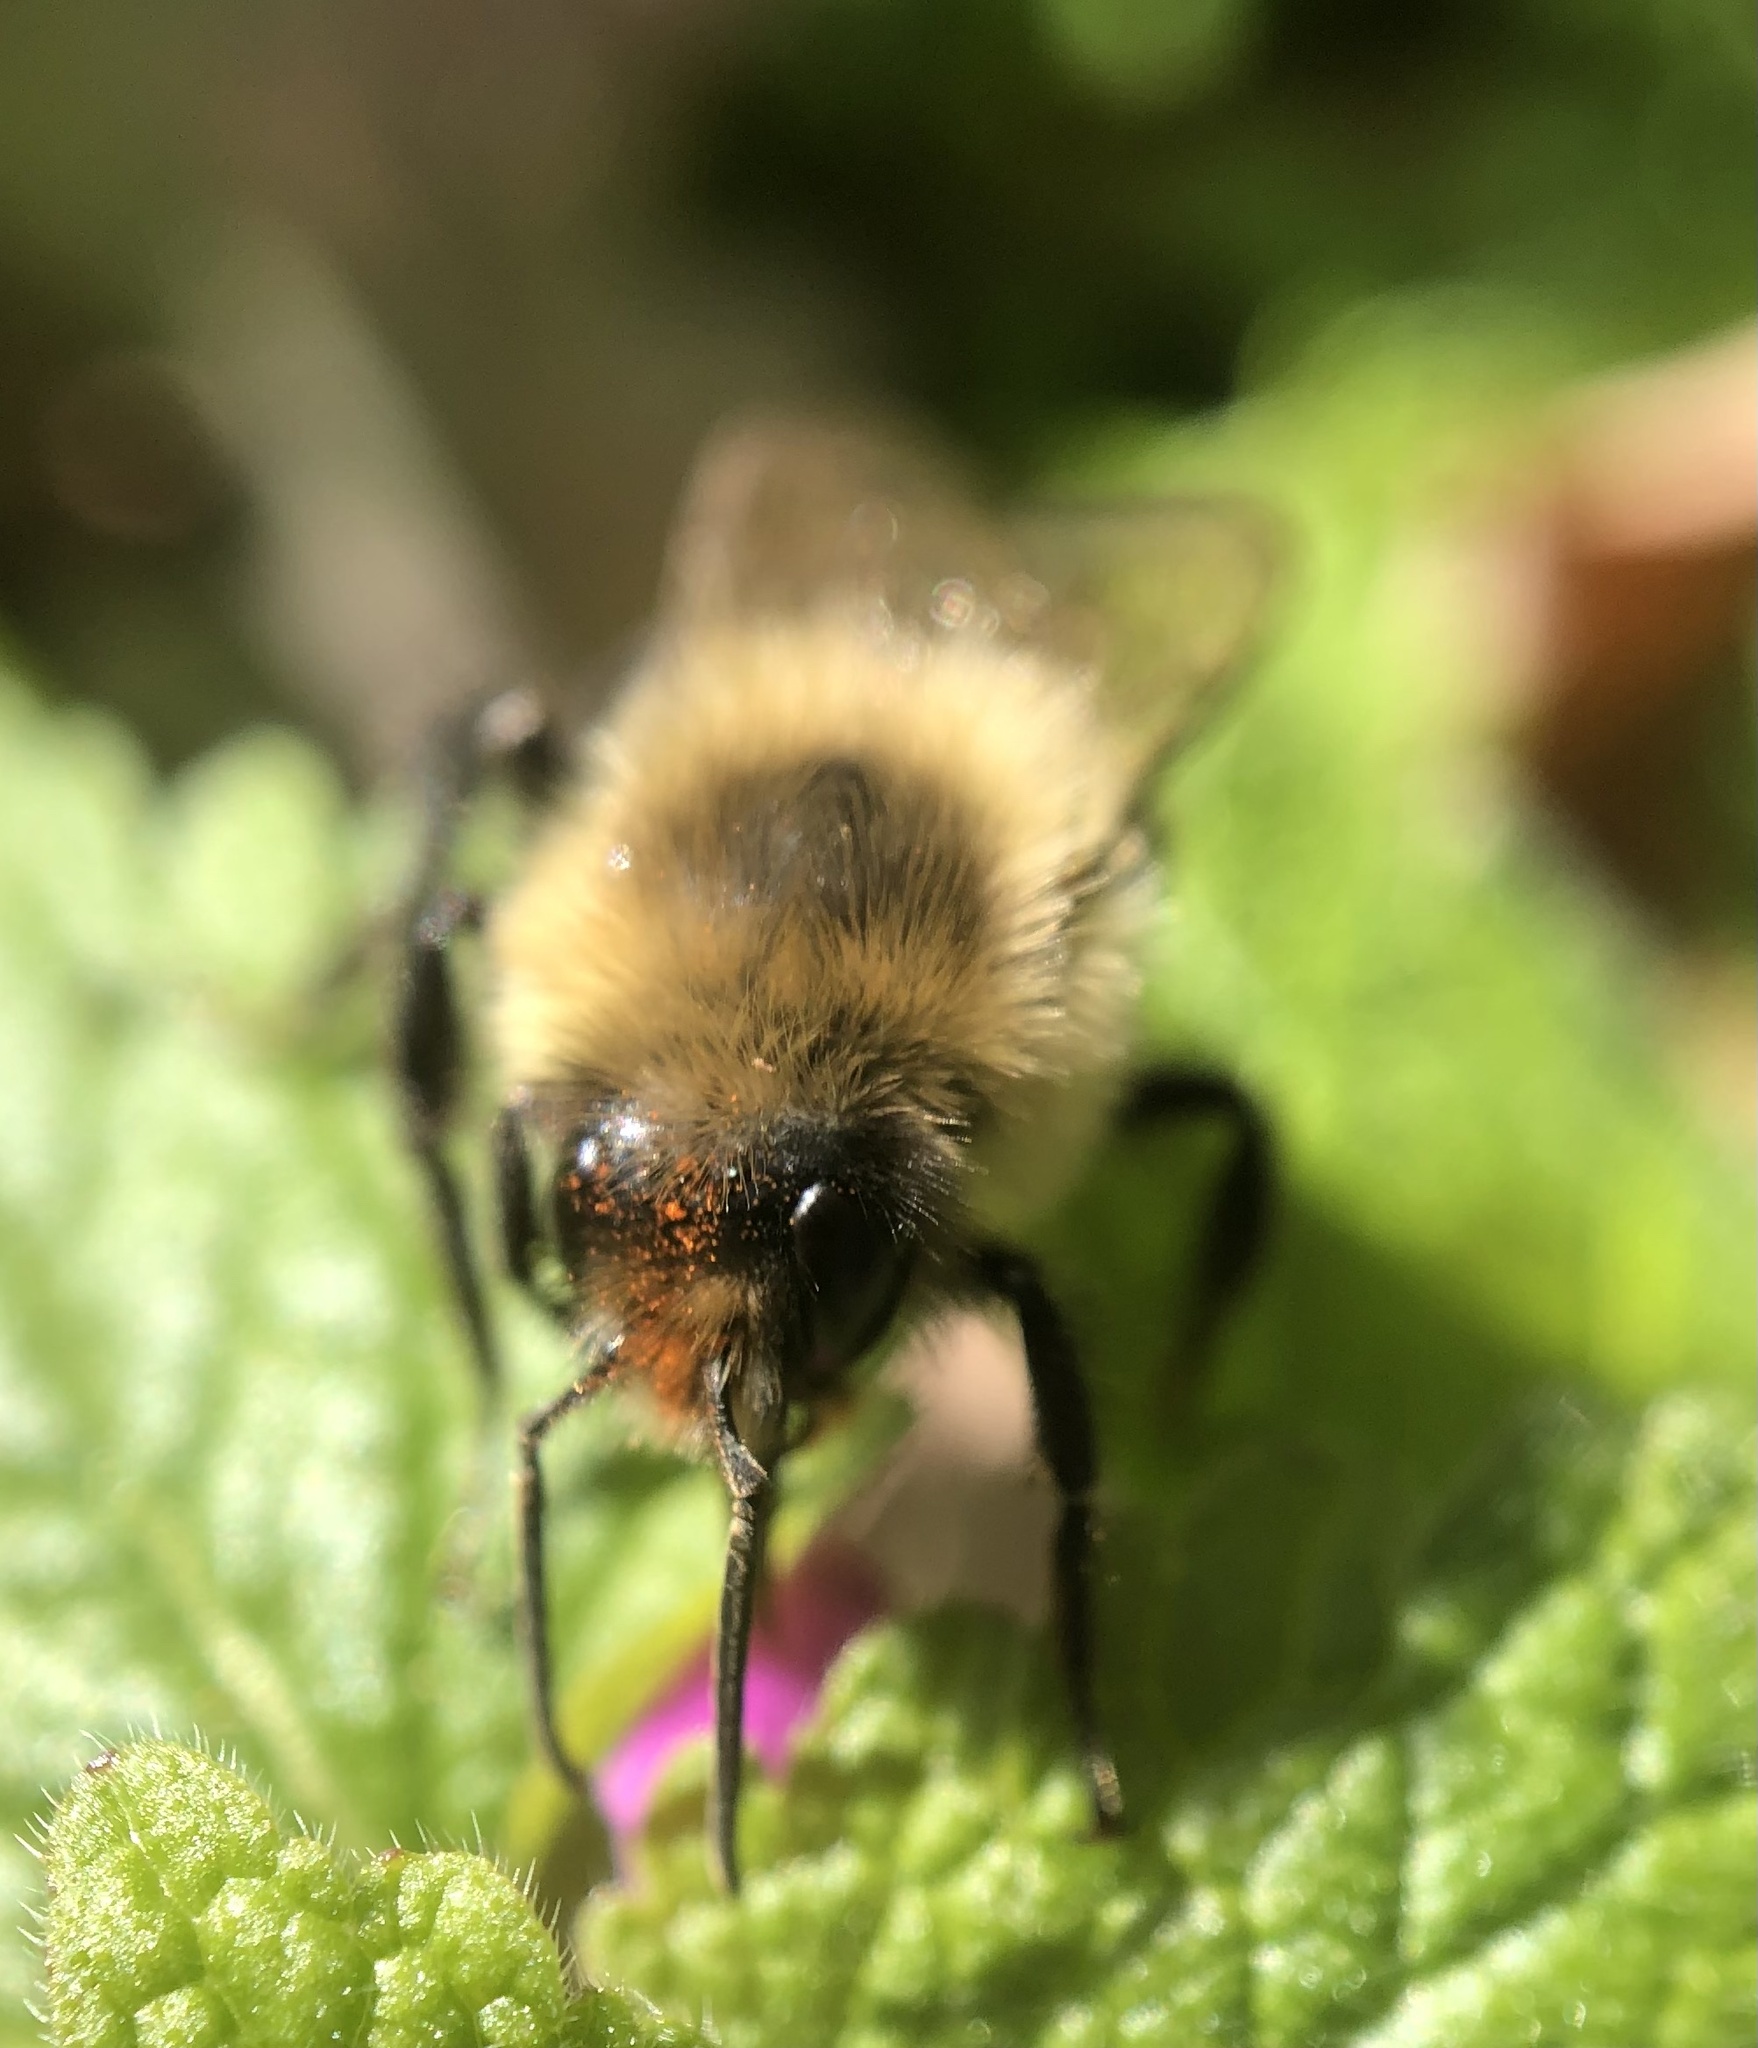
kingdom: Animalia
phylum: Arthropoda
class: Insecta
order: Hymenoptera
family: Apidae
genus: Bombus
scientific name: Bombus impatiens
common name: Common eastern bumble bee
